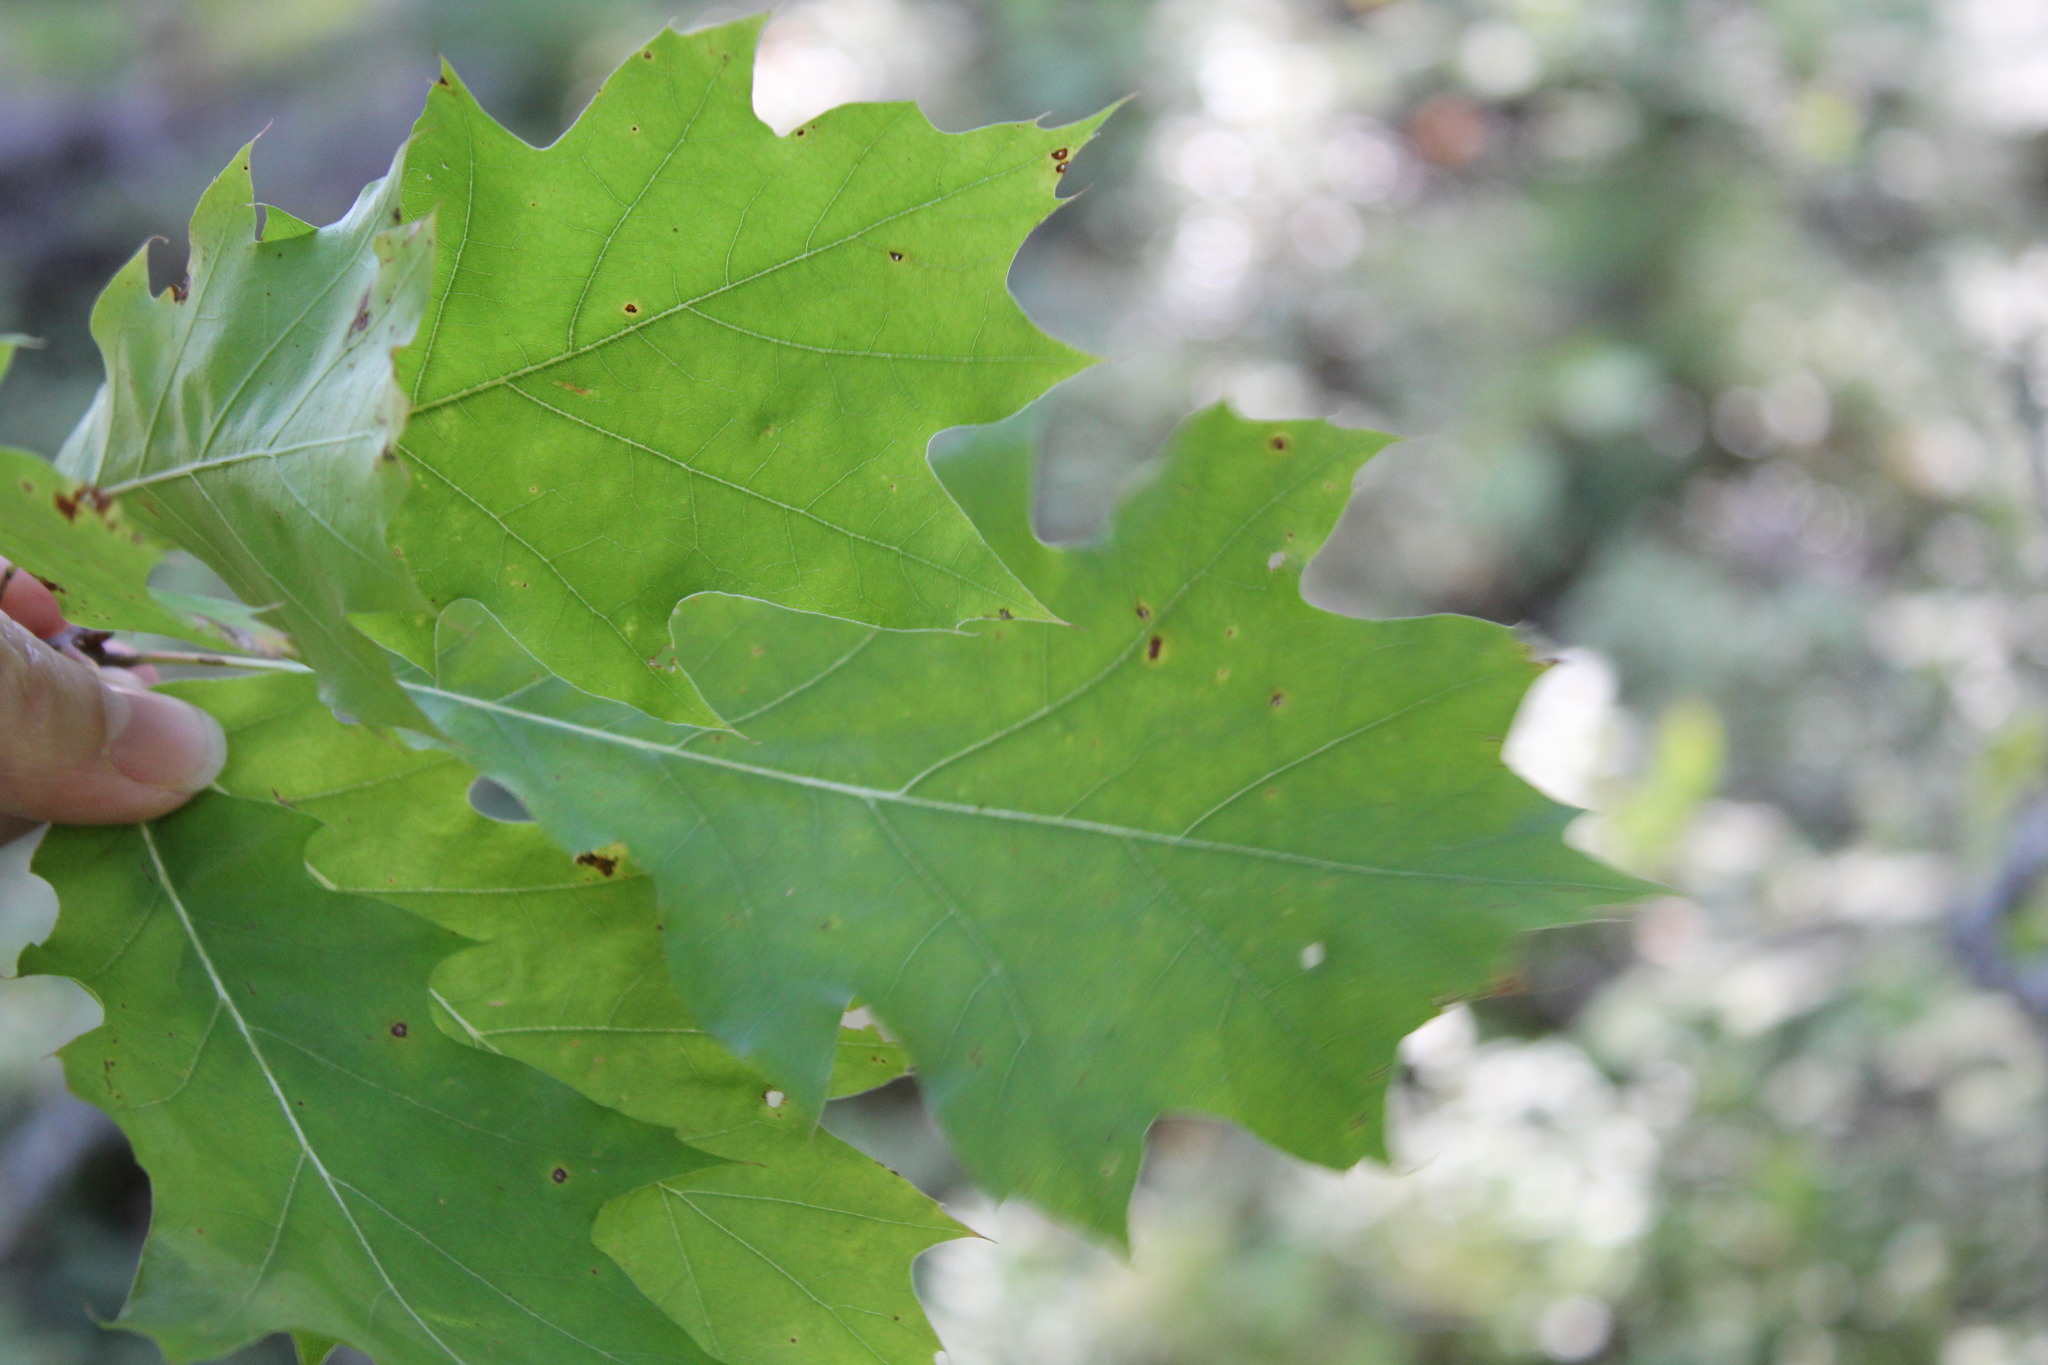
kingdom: Plantae
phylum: Tracheophyta
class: Magnoliopsida
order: Fagales
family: Fagaceae
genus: Quercus
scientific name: Quercus rubra
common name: Red oak
